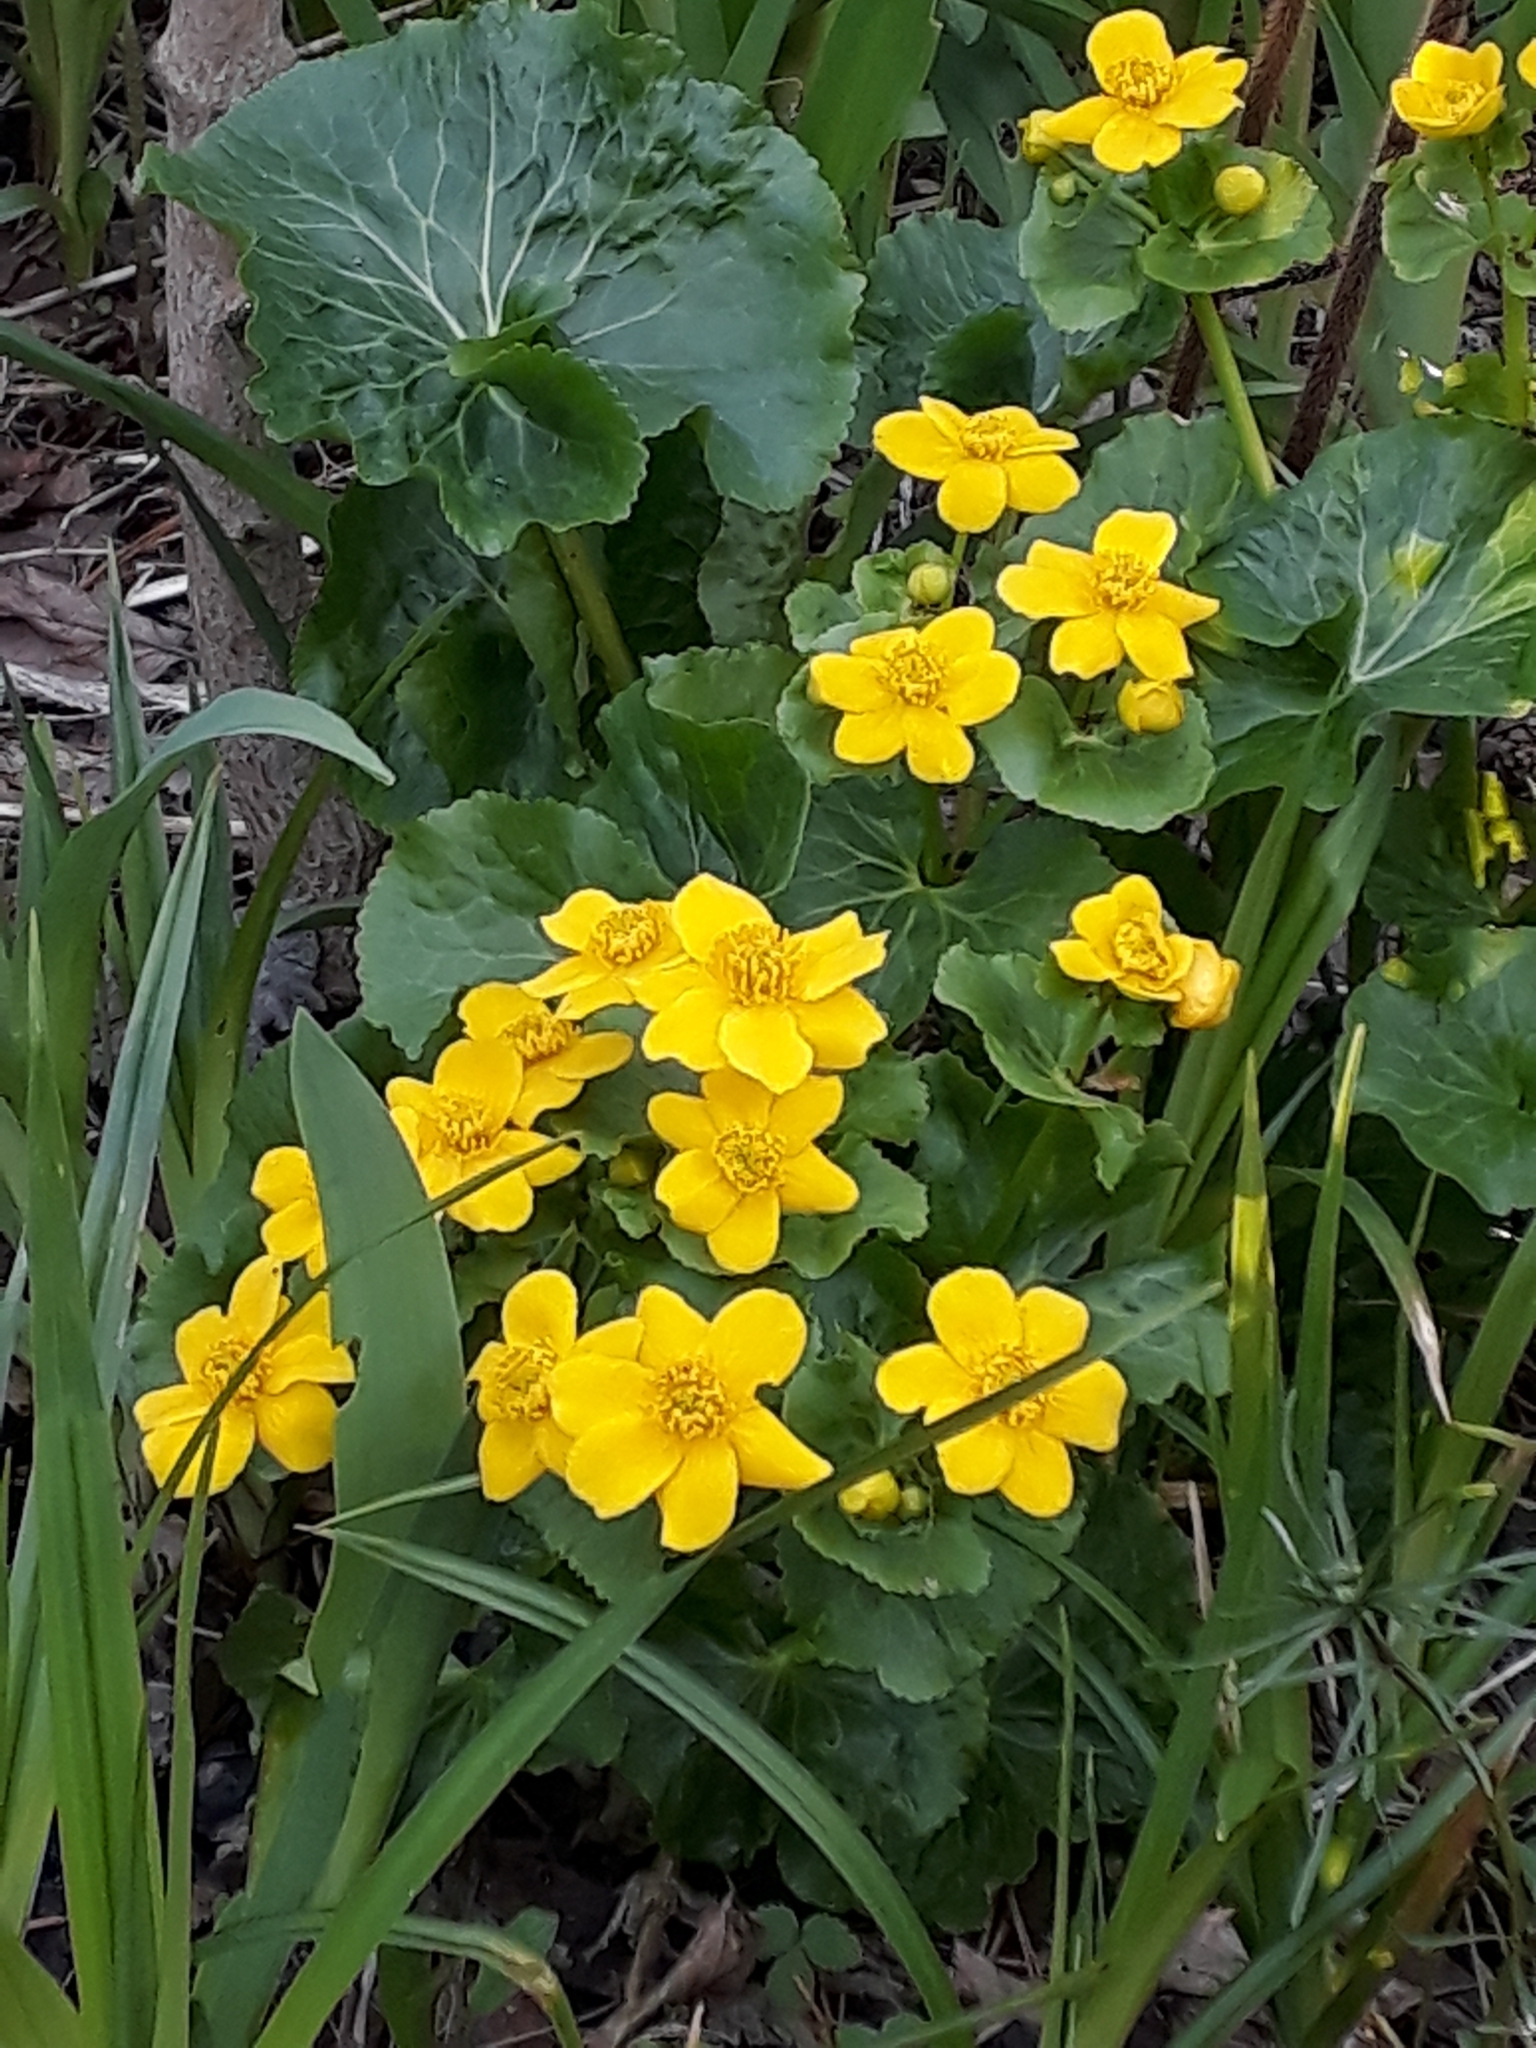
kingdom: Plantae
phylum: Tracheophyta
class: Magnoliopsida
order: Ranunculales
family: Ranunculaceae
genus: Caltha
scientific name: Caltha palustris
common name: Marsh marigold
